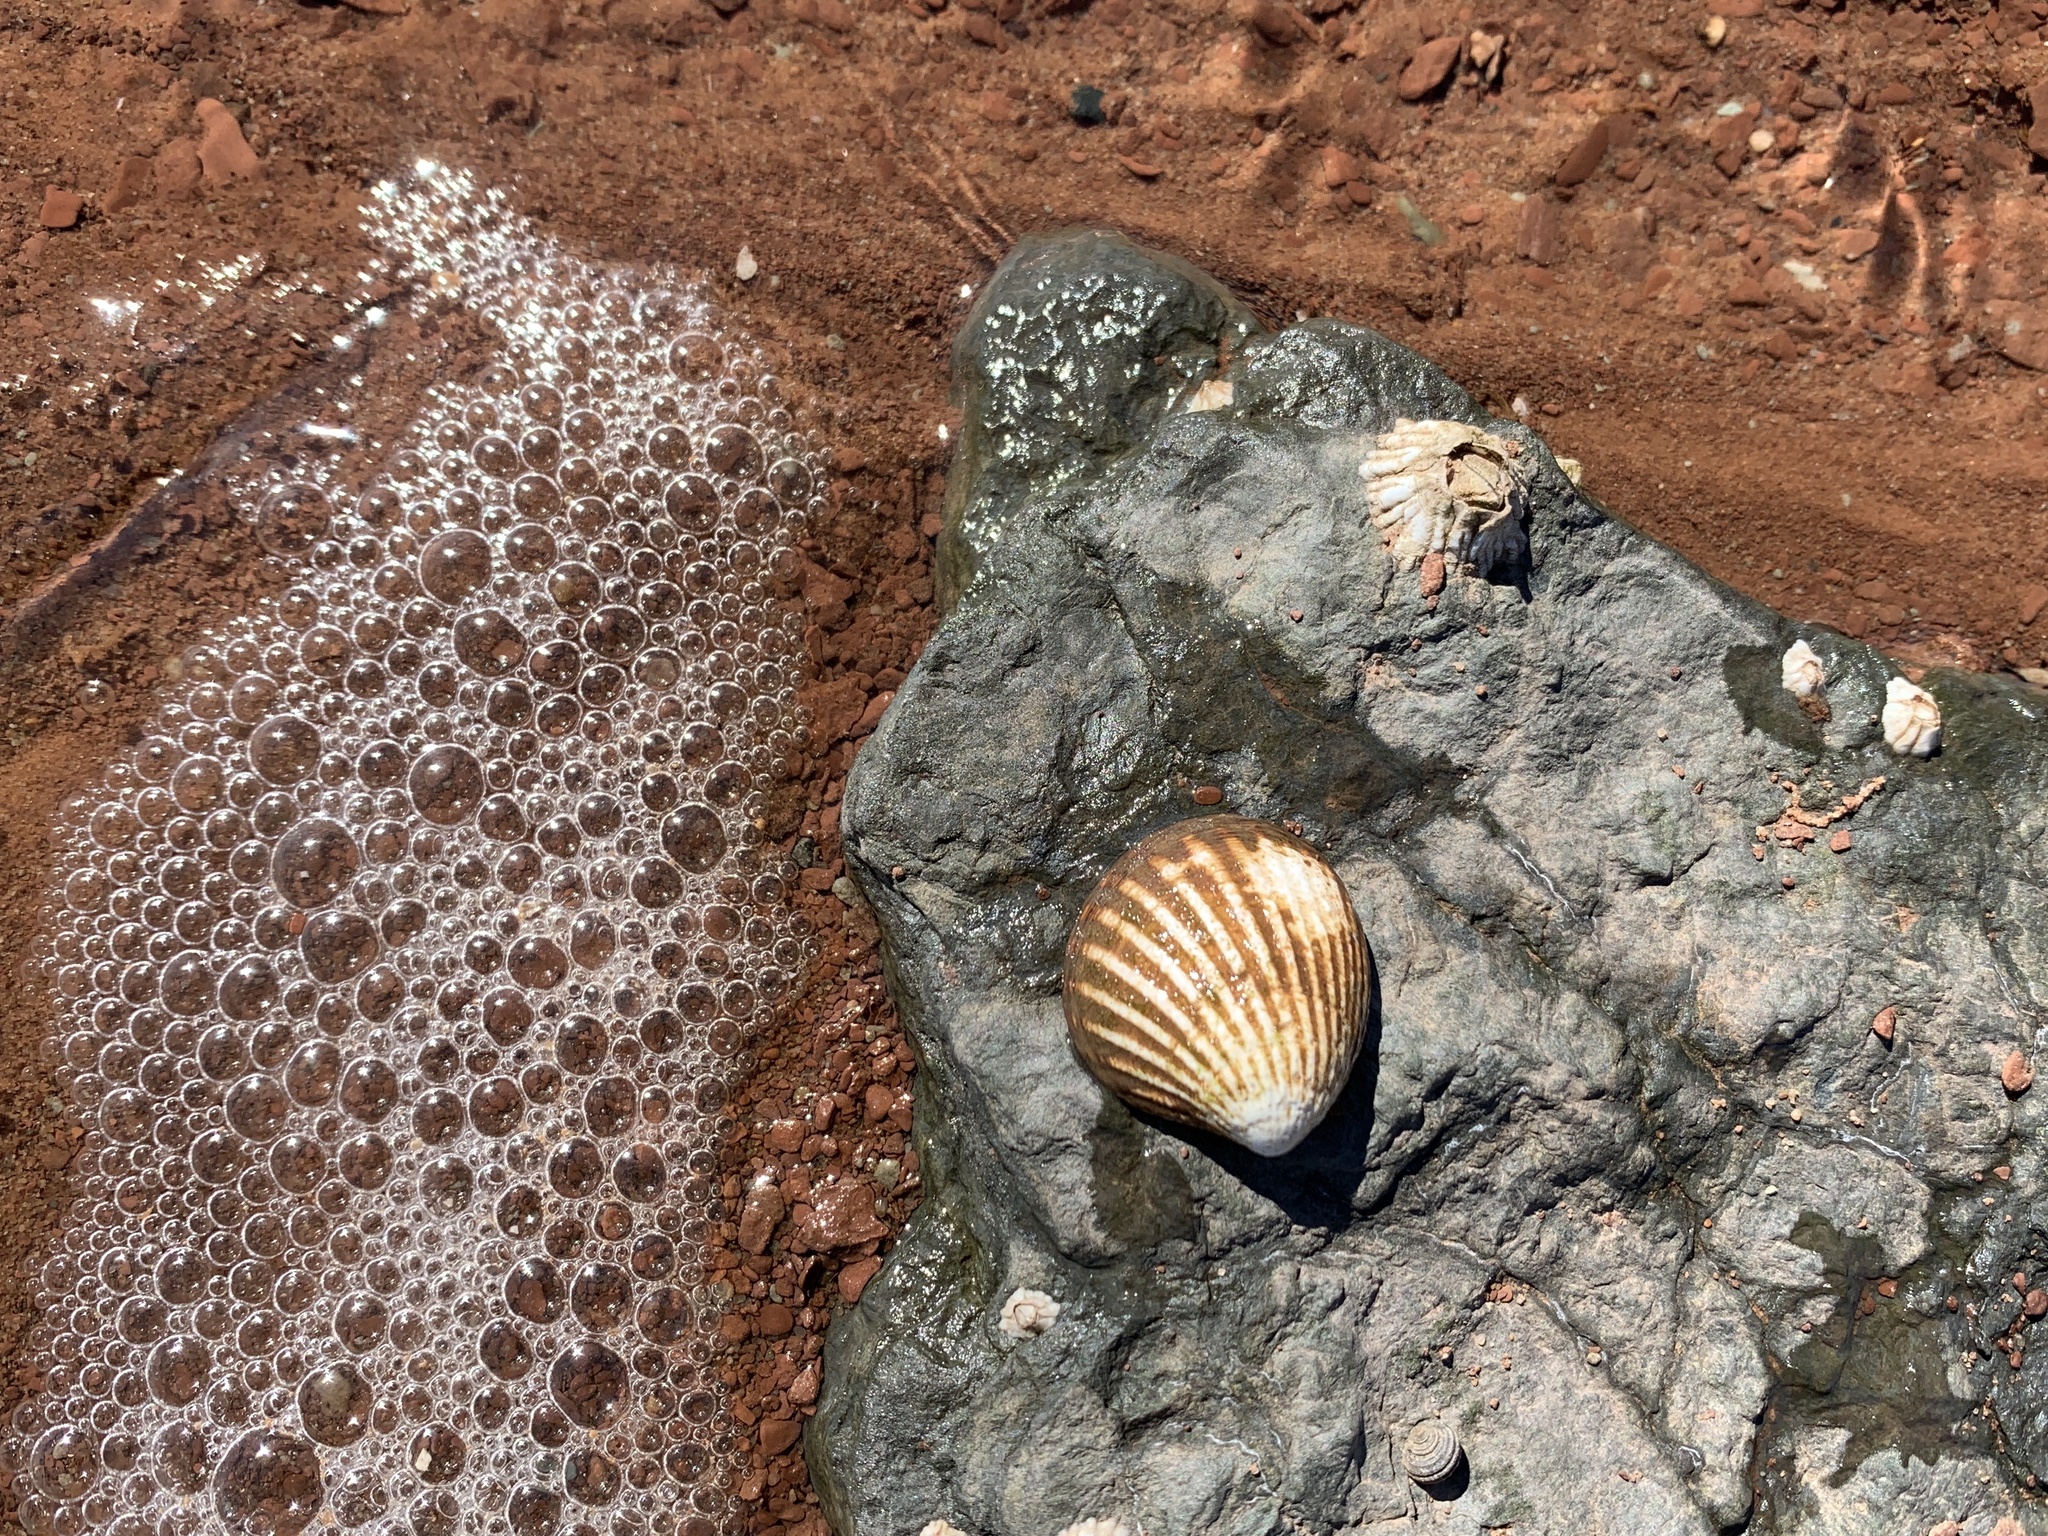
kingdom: Animalia
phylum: Mollusca
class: Bivalvia
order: Carditida
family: Carditidae
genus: Cyclocardia
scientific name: Cyclocardia borealis
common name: Northern cyclocardia
